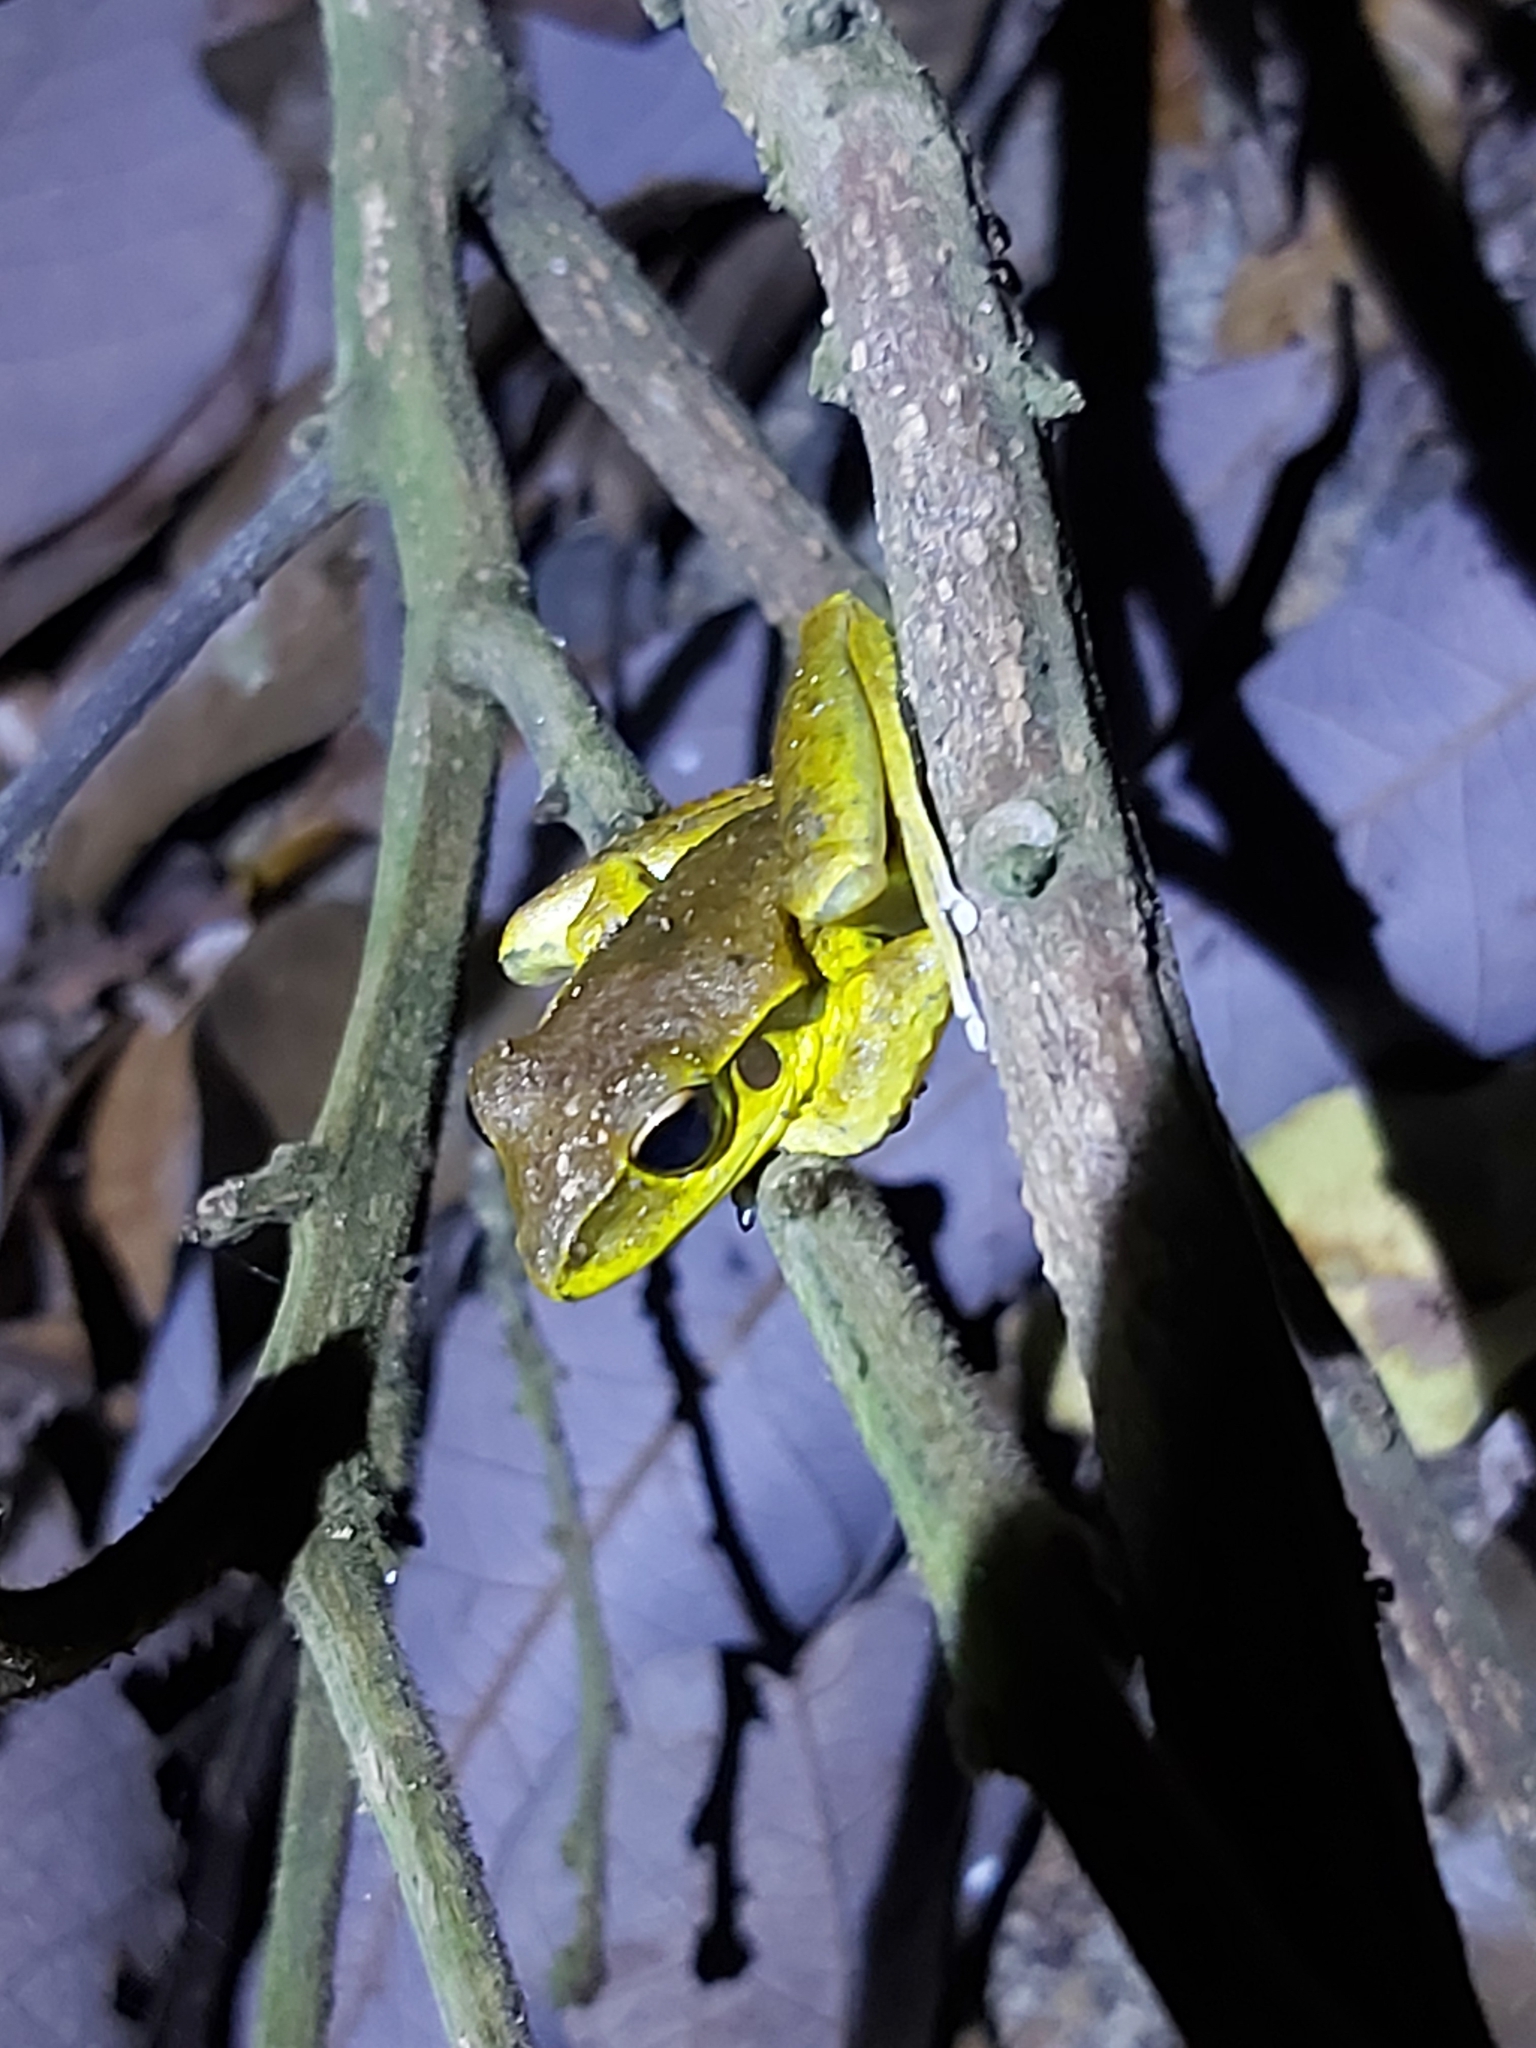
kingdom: Animalia
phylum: Chordata
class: Amphibia
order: Anura
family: Hylidae
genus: Ranoidea
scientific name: Ranoidea
